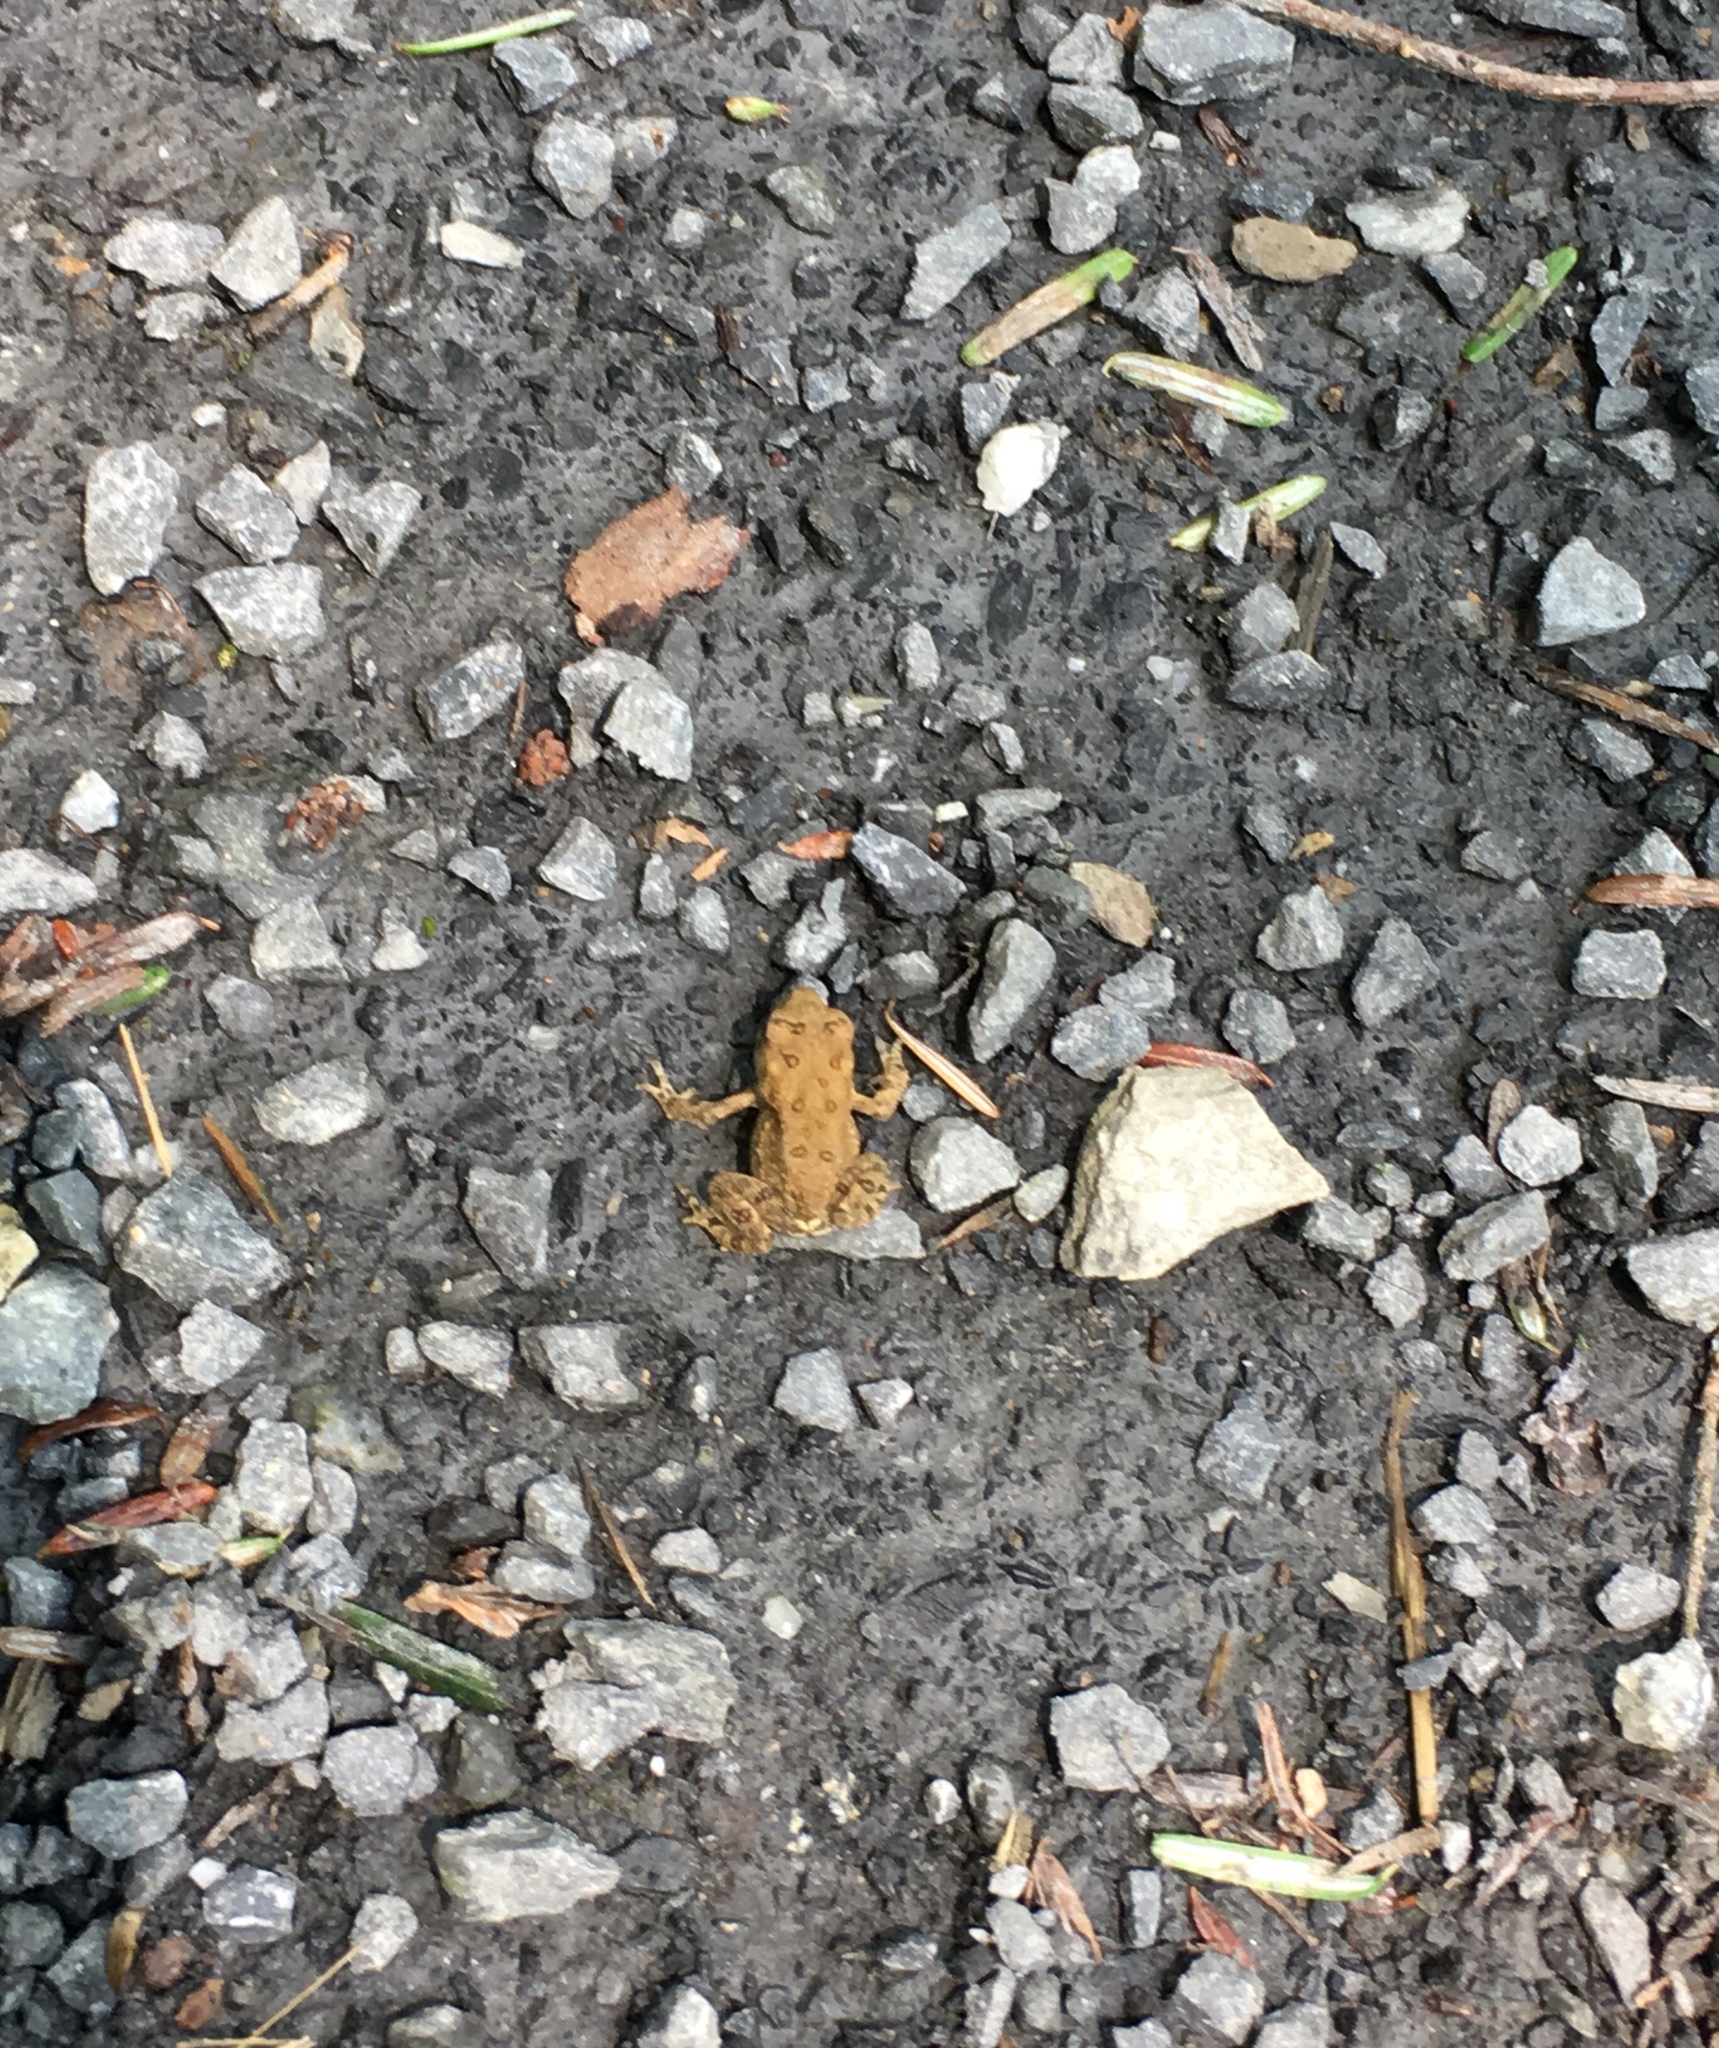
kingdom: Animalia
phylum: Chordata
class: Amphibia
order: Anura
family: Bufonidae
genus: Anaxyrus
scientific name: Anaxyrus americanus
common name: American toad
